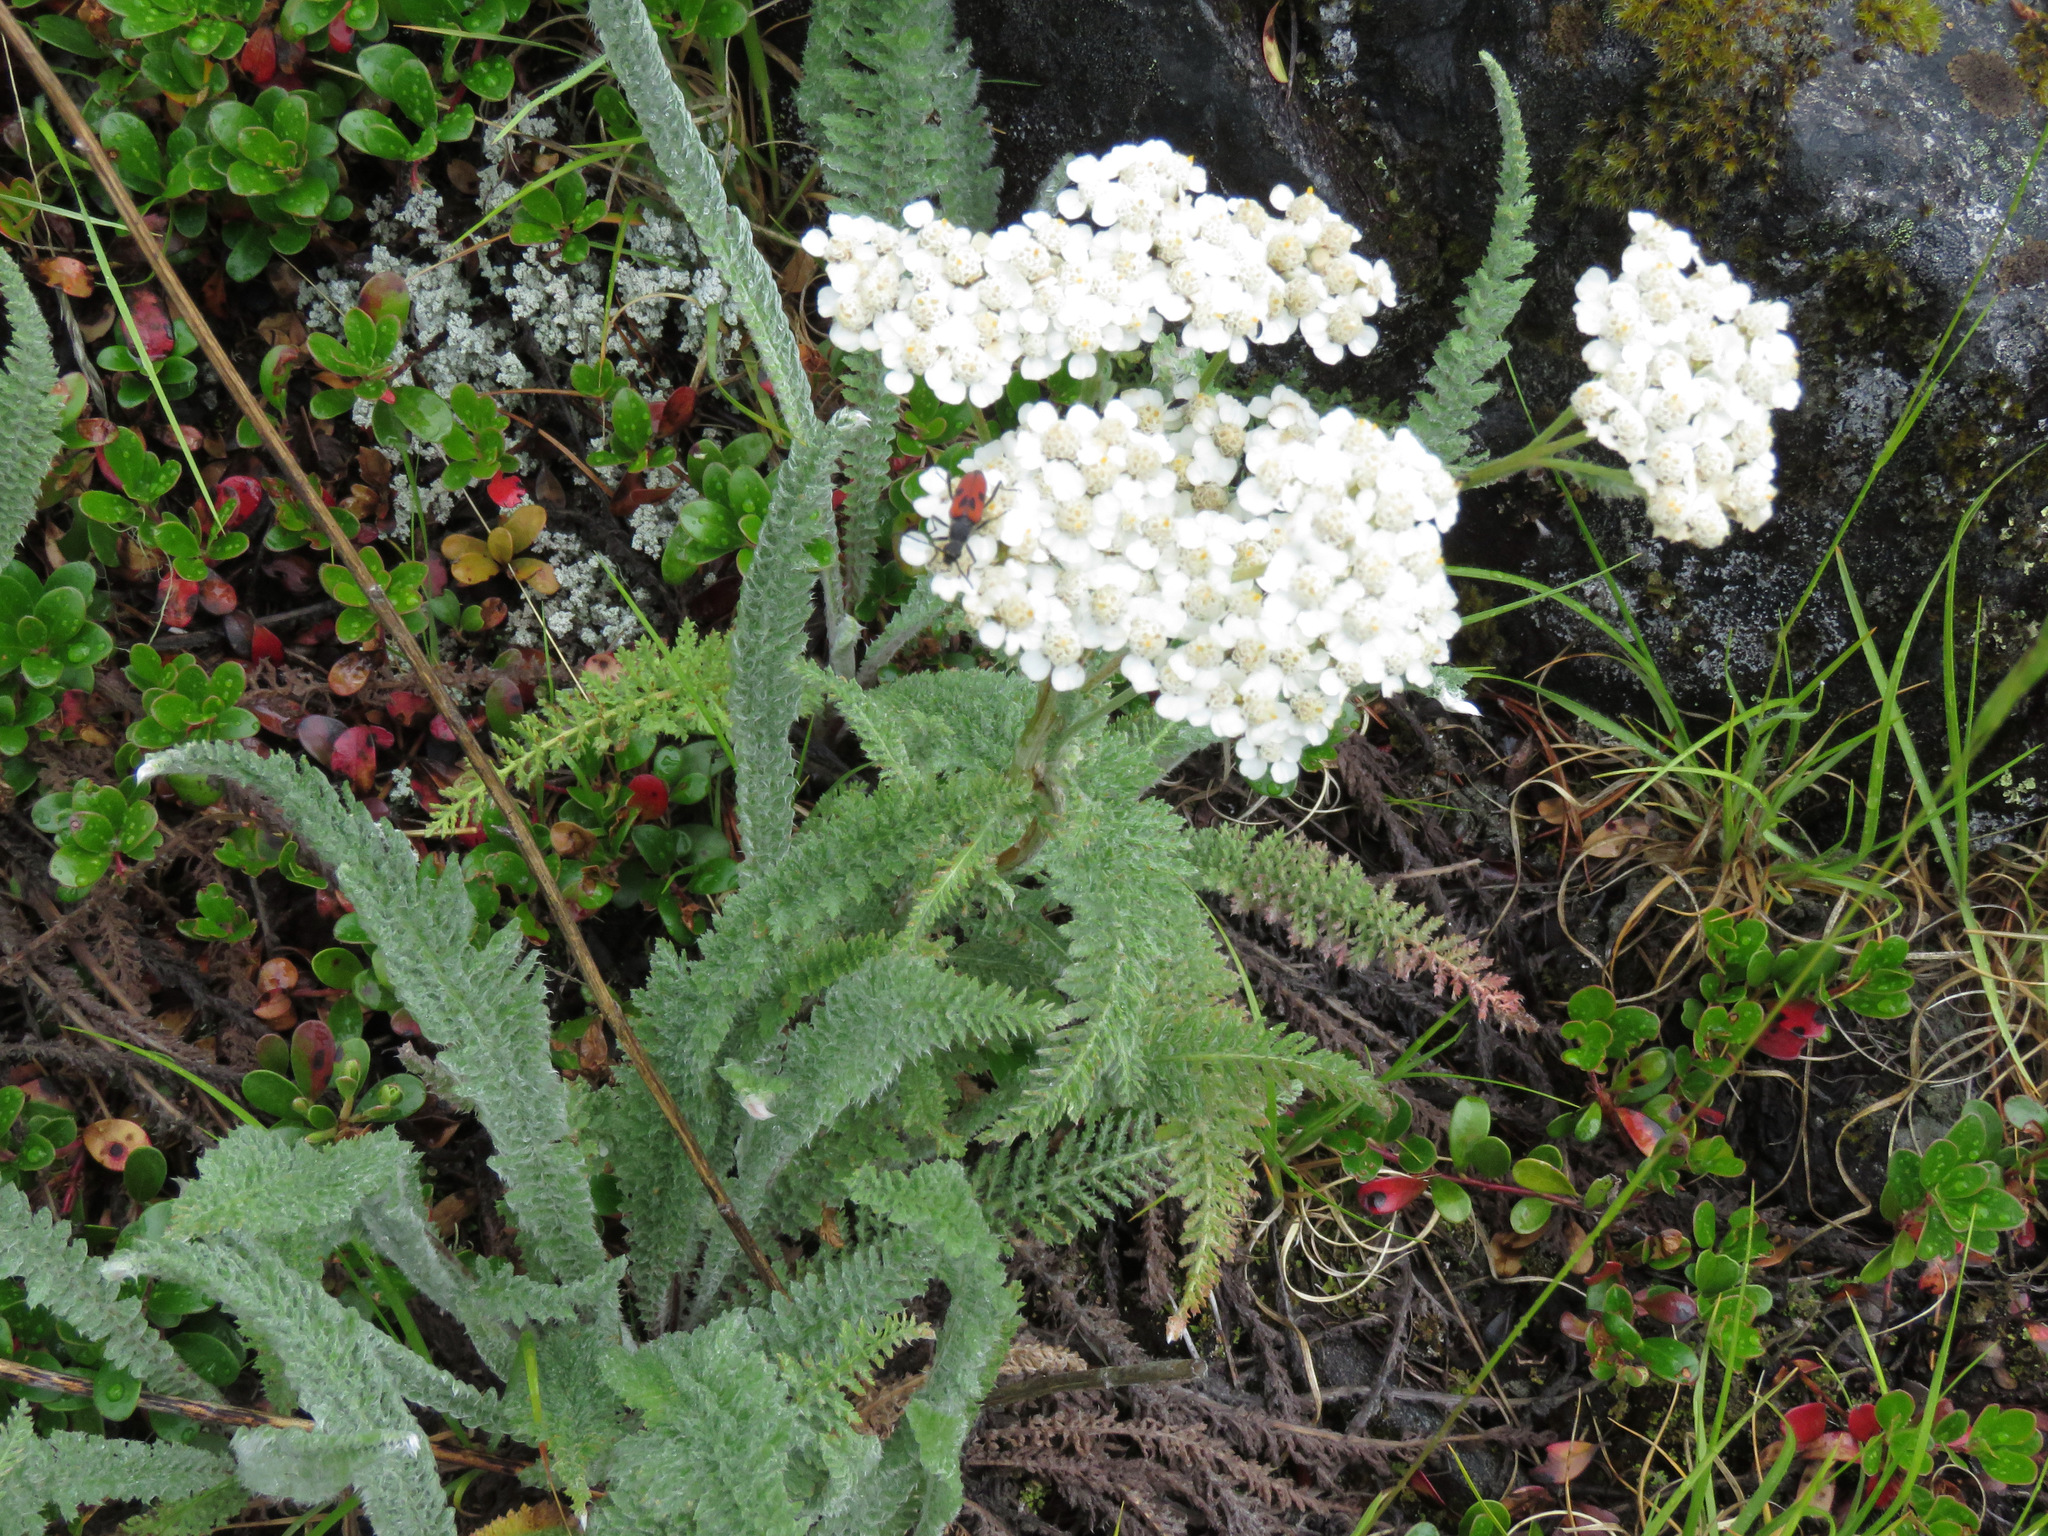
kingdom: Plantae
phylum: Tracheophyta
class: Magnoliopsida
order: Asterales
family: Asteraceae
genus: Achillea
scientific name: Achillea millefolium
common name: Yarrow
